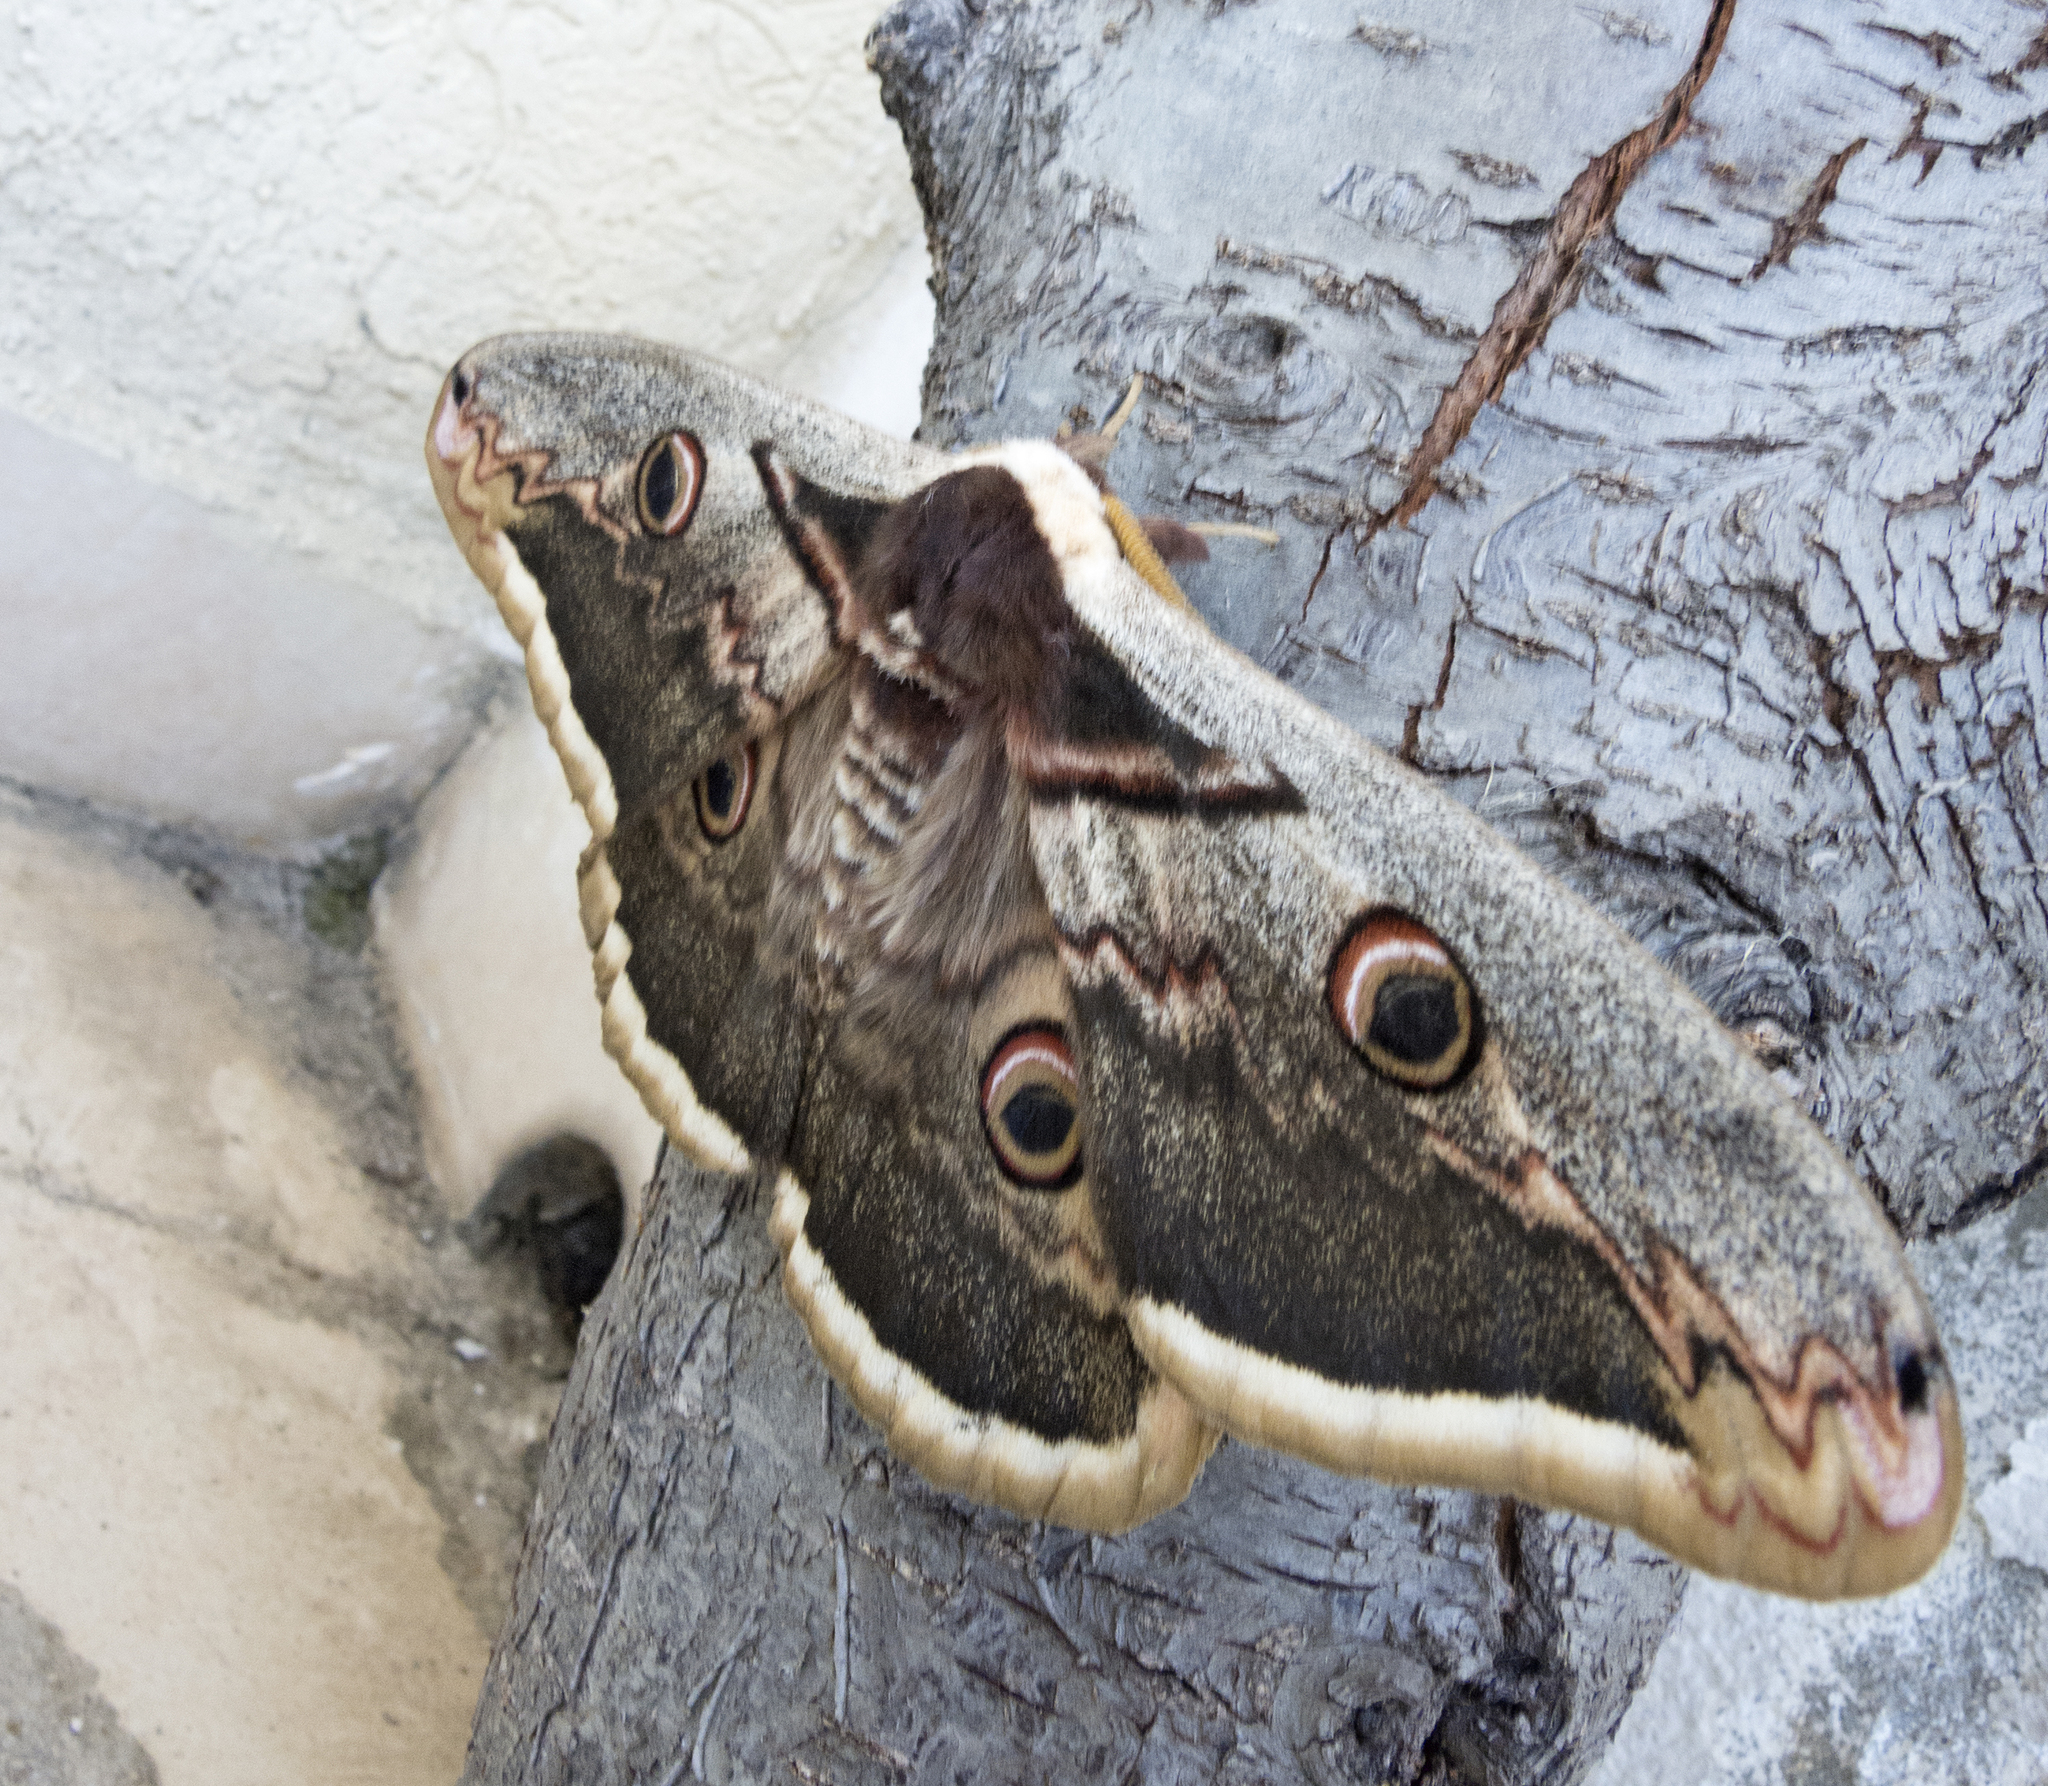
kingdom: Animalia
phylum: Arthropoda
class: Insecta
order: Lepidoptera
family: Saturniidae
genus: Saturnia
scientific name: Saturnia pyri
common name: Great peacock moth
